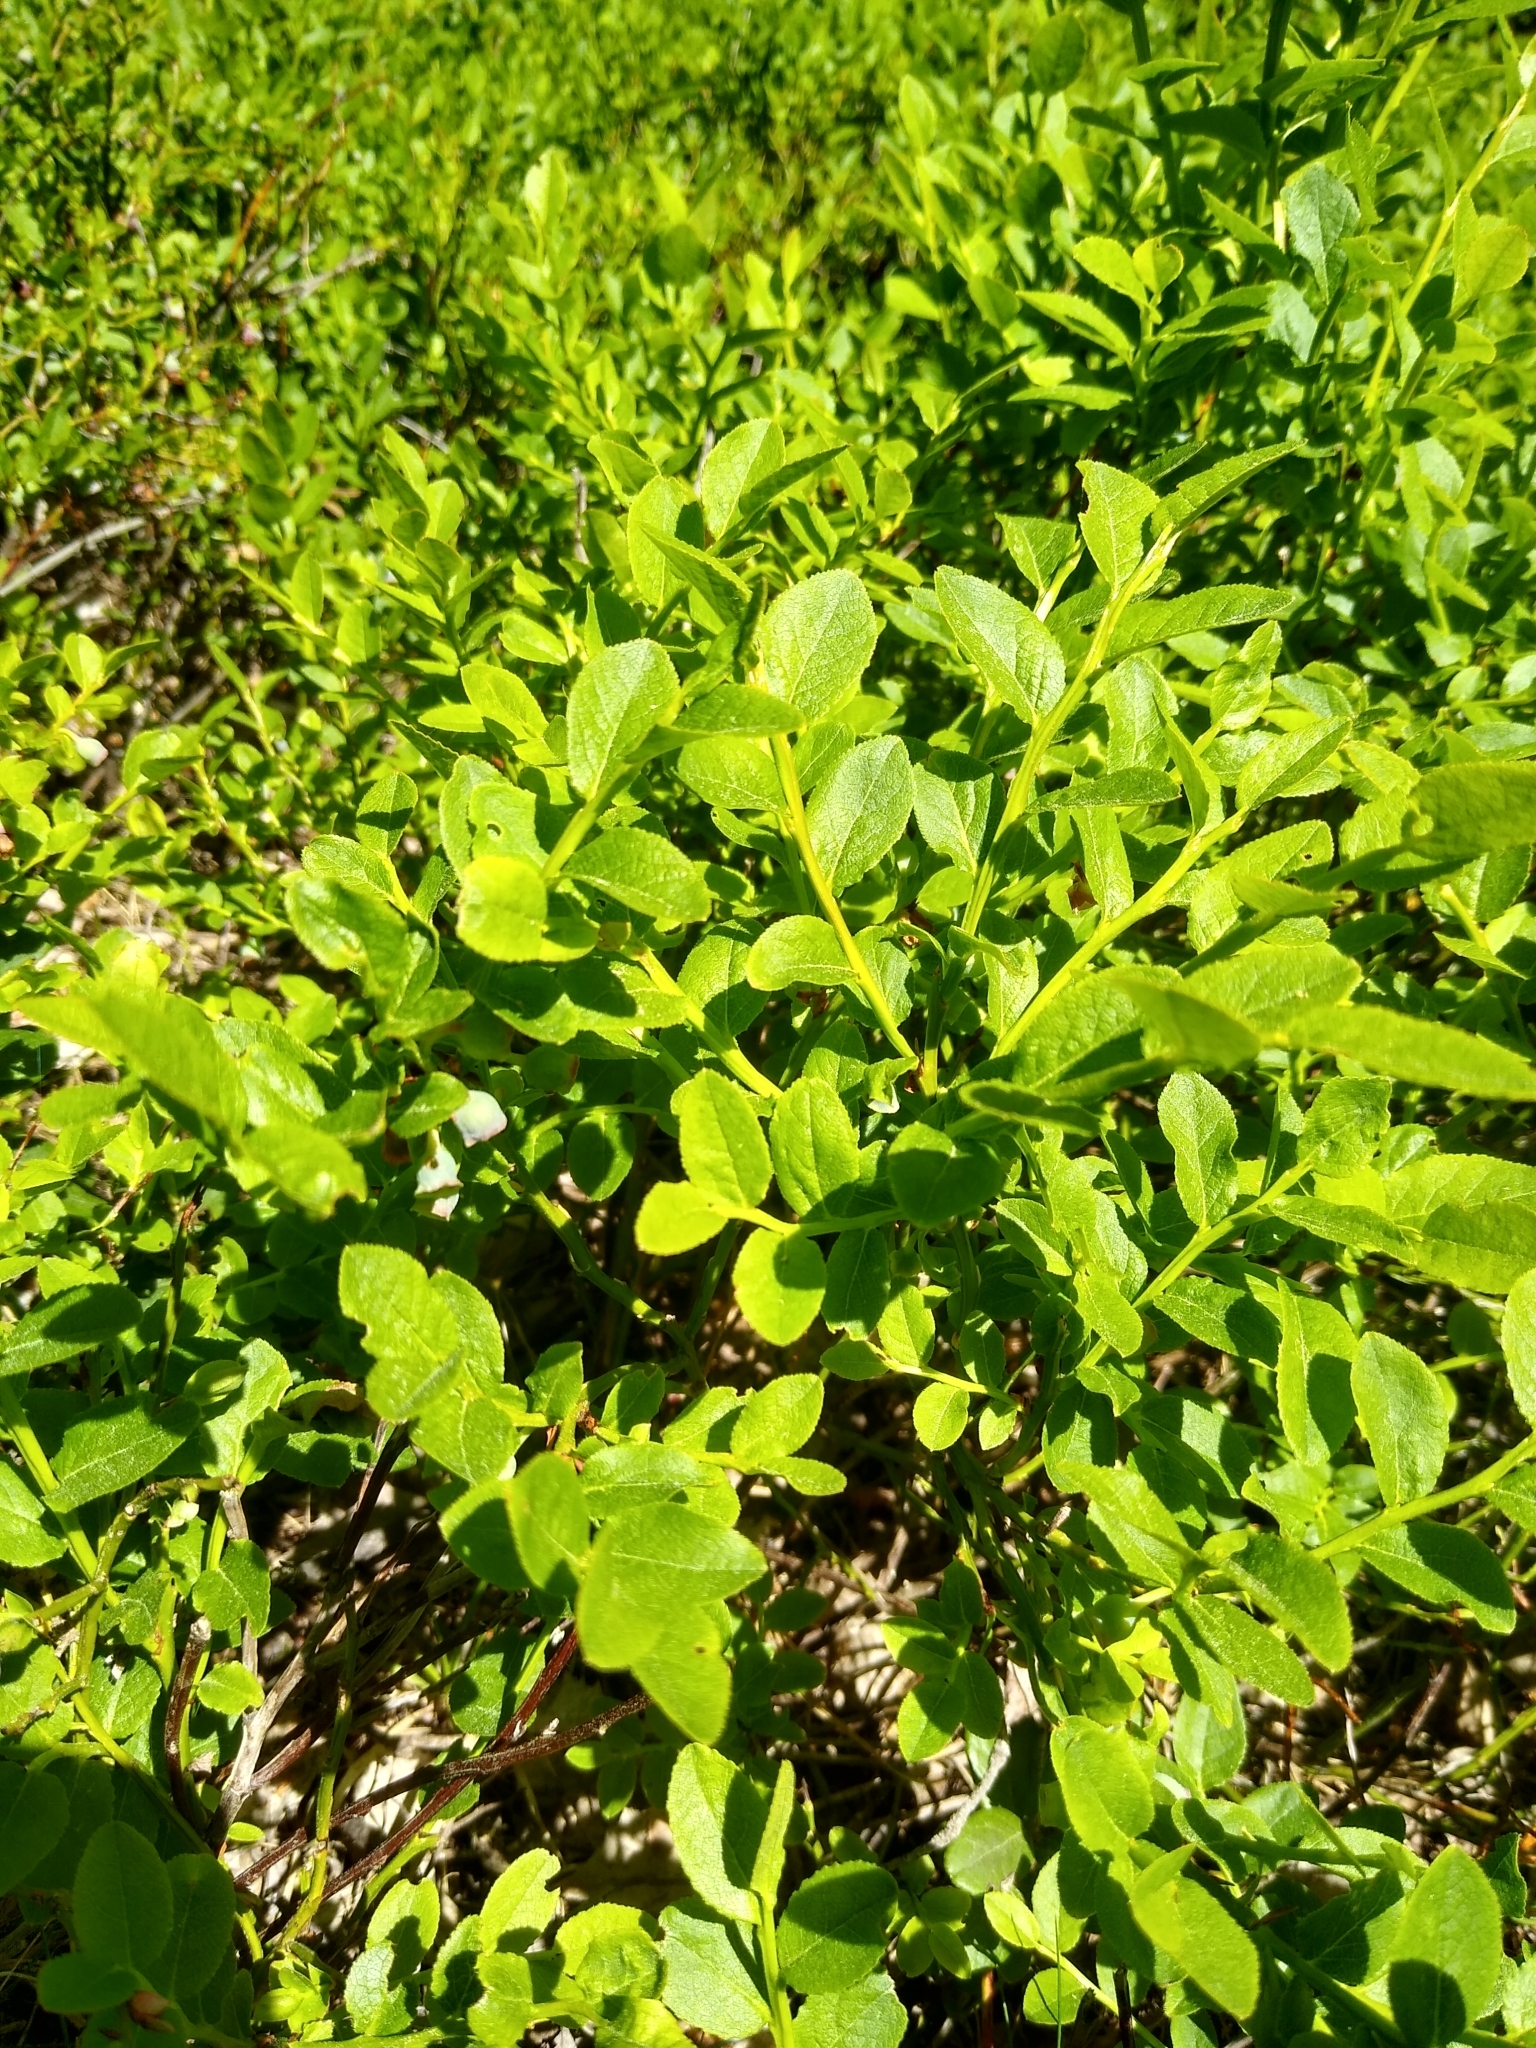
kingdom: Plantae
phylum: Tracheophyta
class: Magnoliopsida
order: Ericales
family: Ericaceae
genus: Vaccinium
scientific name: Vaccinium myrtillus
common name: Bilberry
